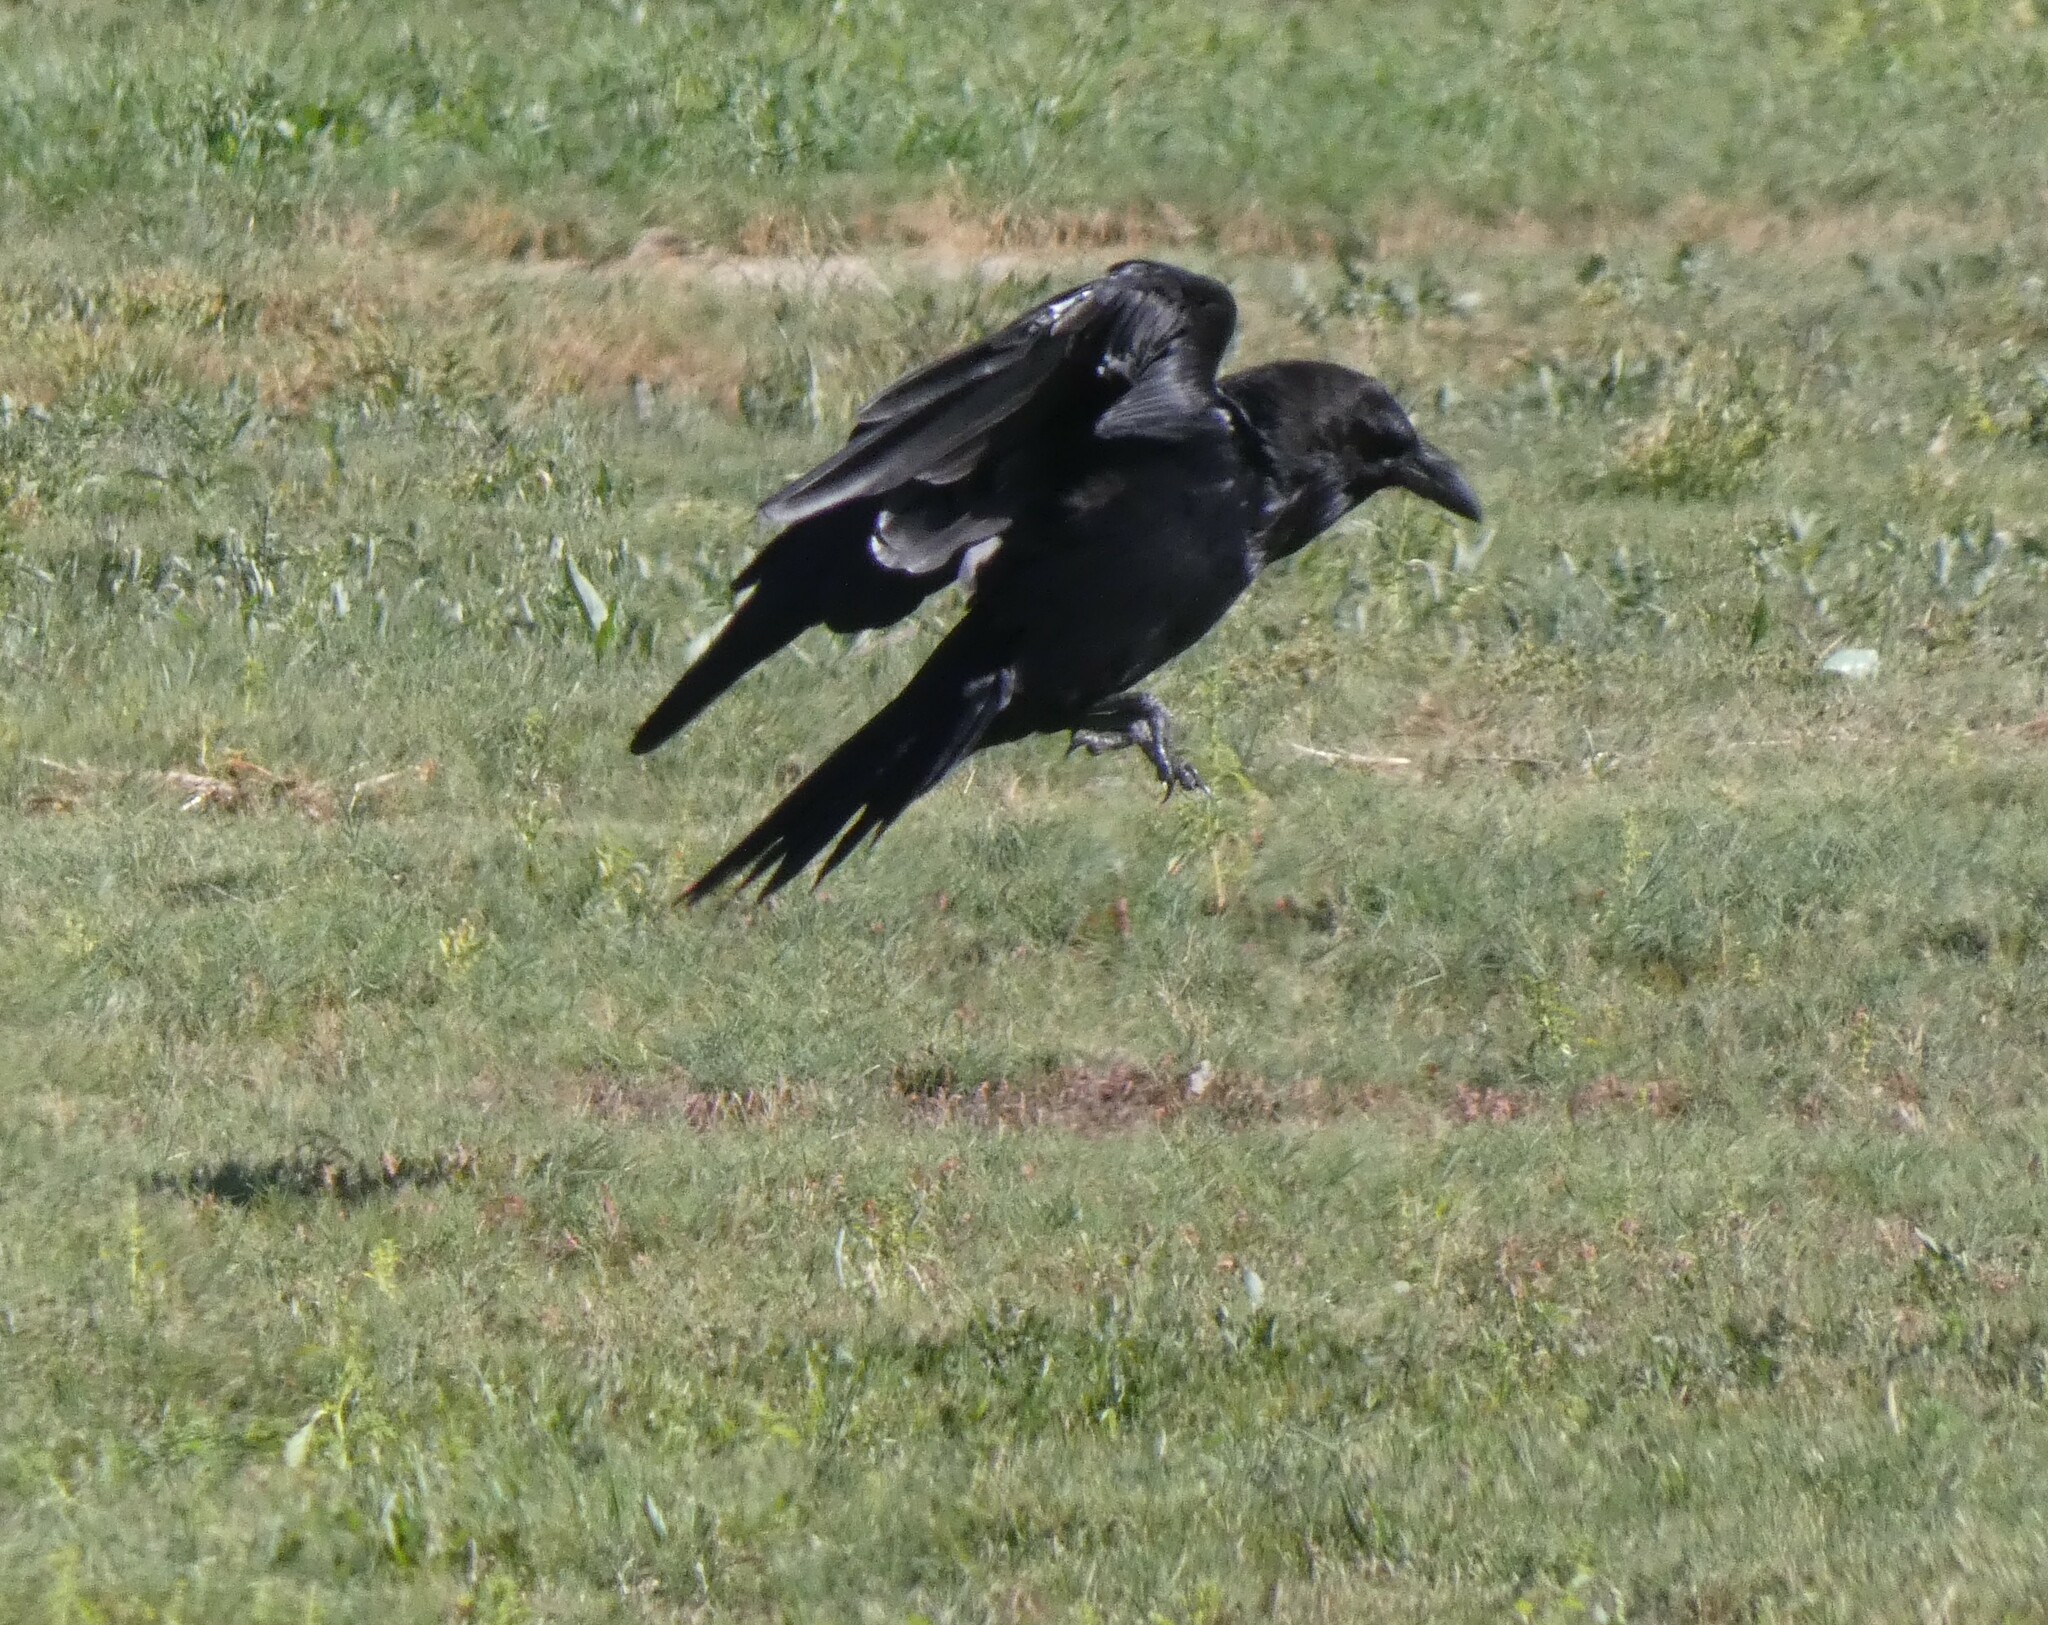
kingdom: Animalia
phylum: Chordata
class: Aves
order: Passeriformes
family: Corvidae
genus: Corvus
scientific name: Corvus corax
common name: Common raven
